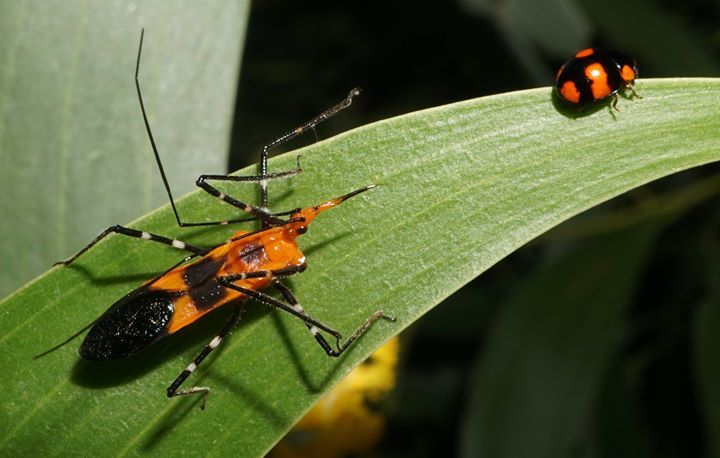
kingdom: Animalia
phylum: Arthropoda
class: Insecta
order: Hemiptera
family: Reduviidae
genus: Zelus
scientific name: Zelus longipes
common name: Milkweed assassin bug
